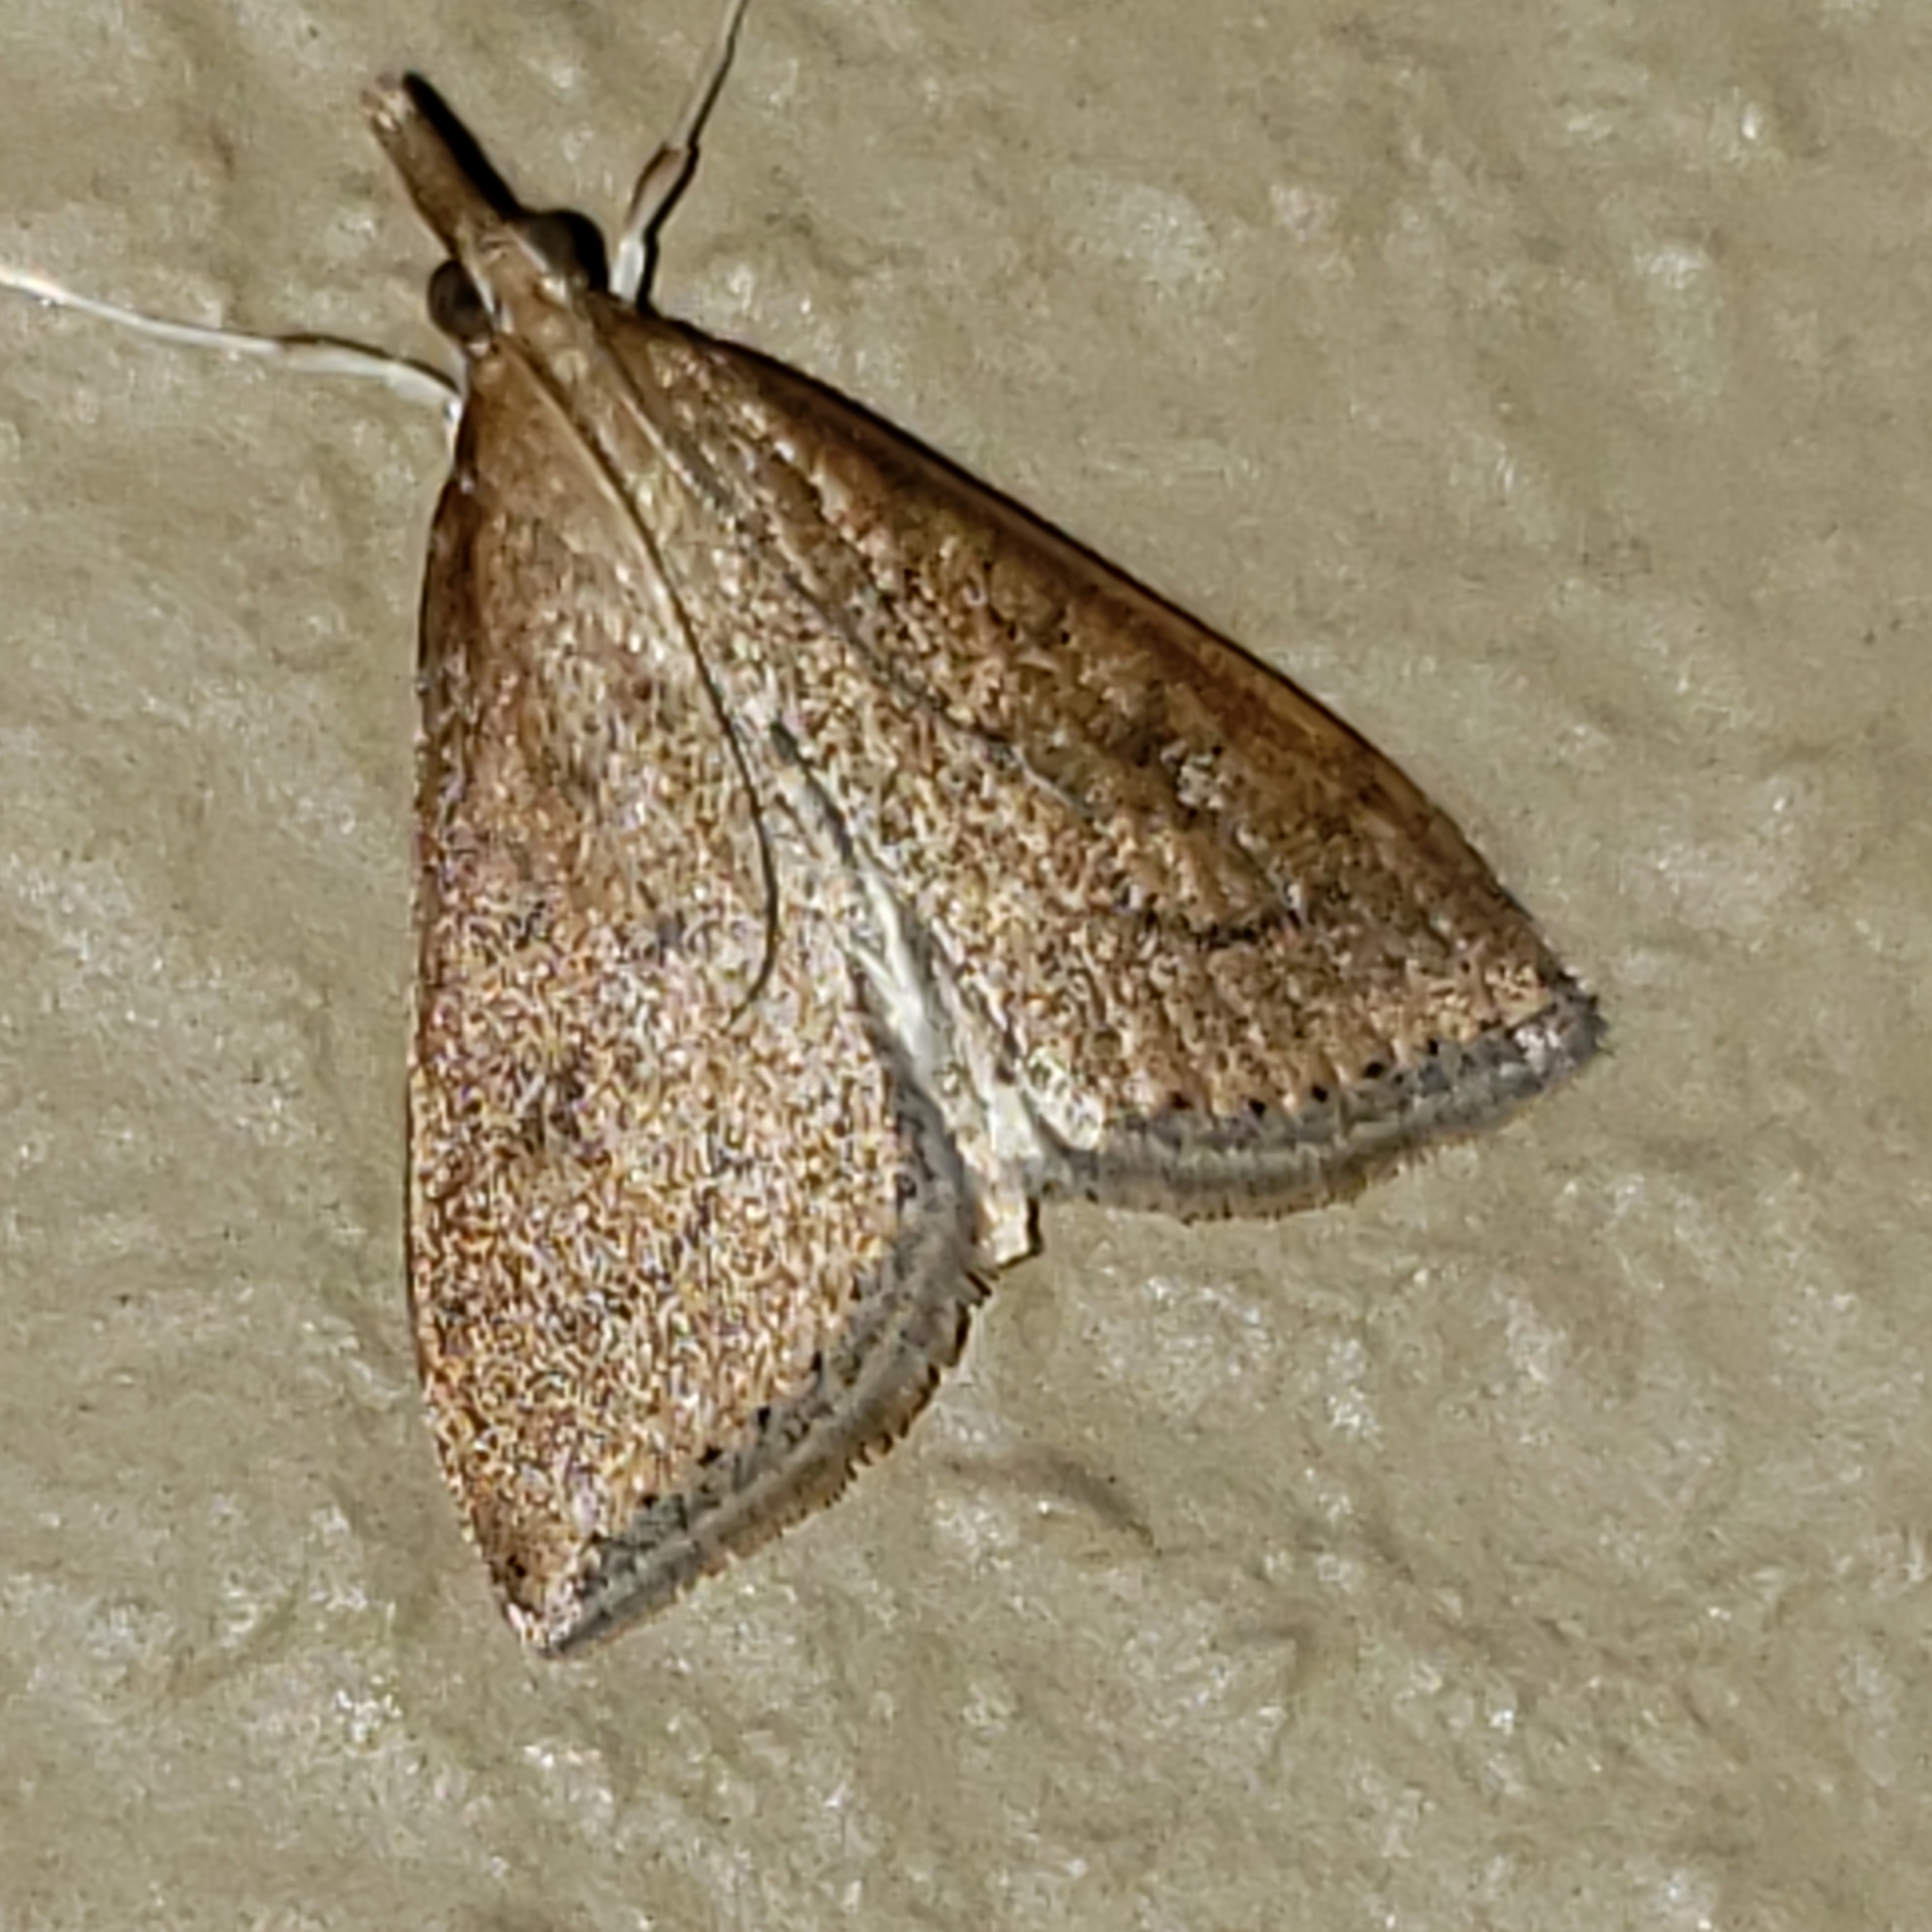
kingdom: Animalia
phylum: Arthropoda
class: Insecta
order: Lepidoptera
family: Crambidae
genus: Udea
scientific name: Udea rubigalis
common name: Celery leaftier moth
